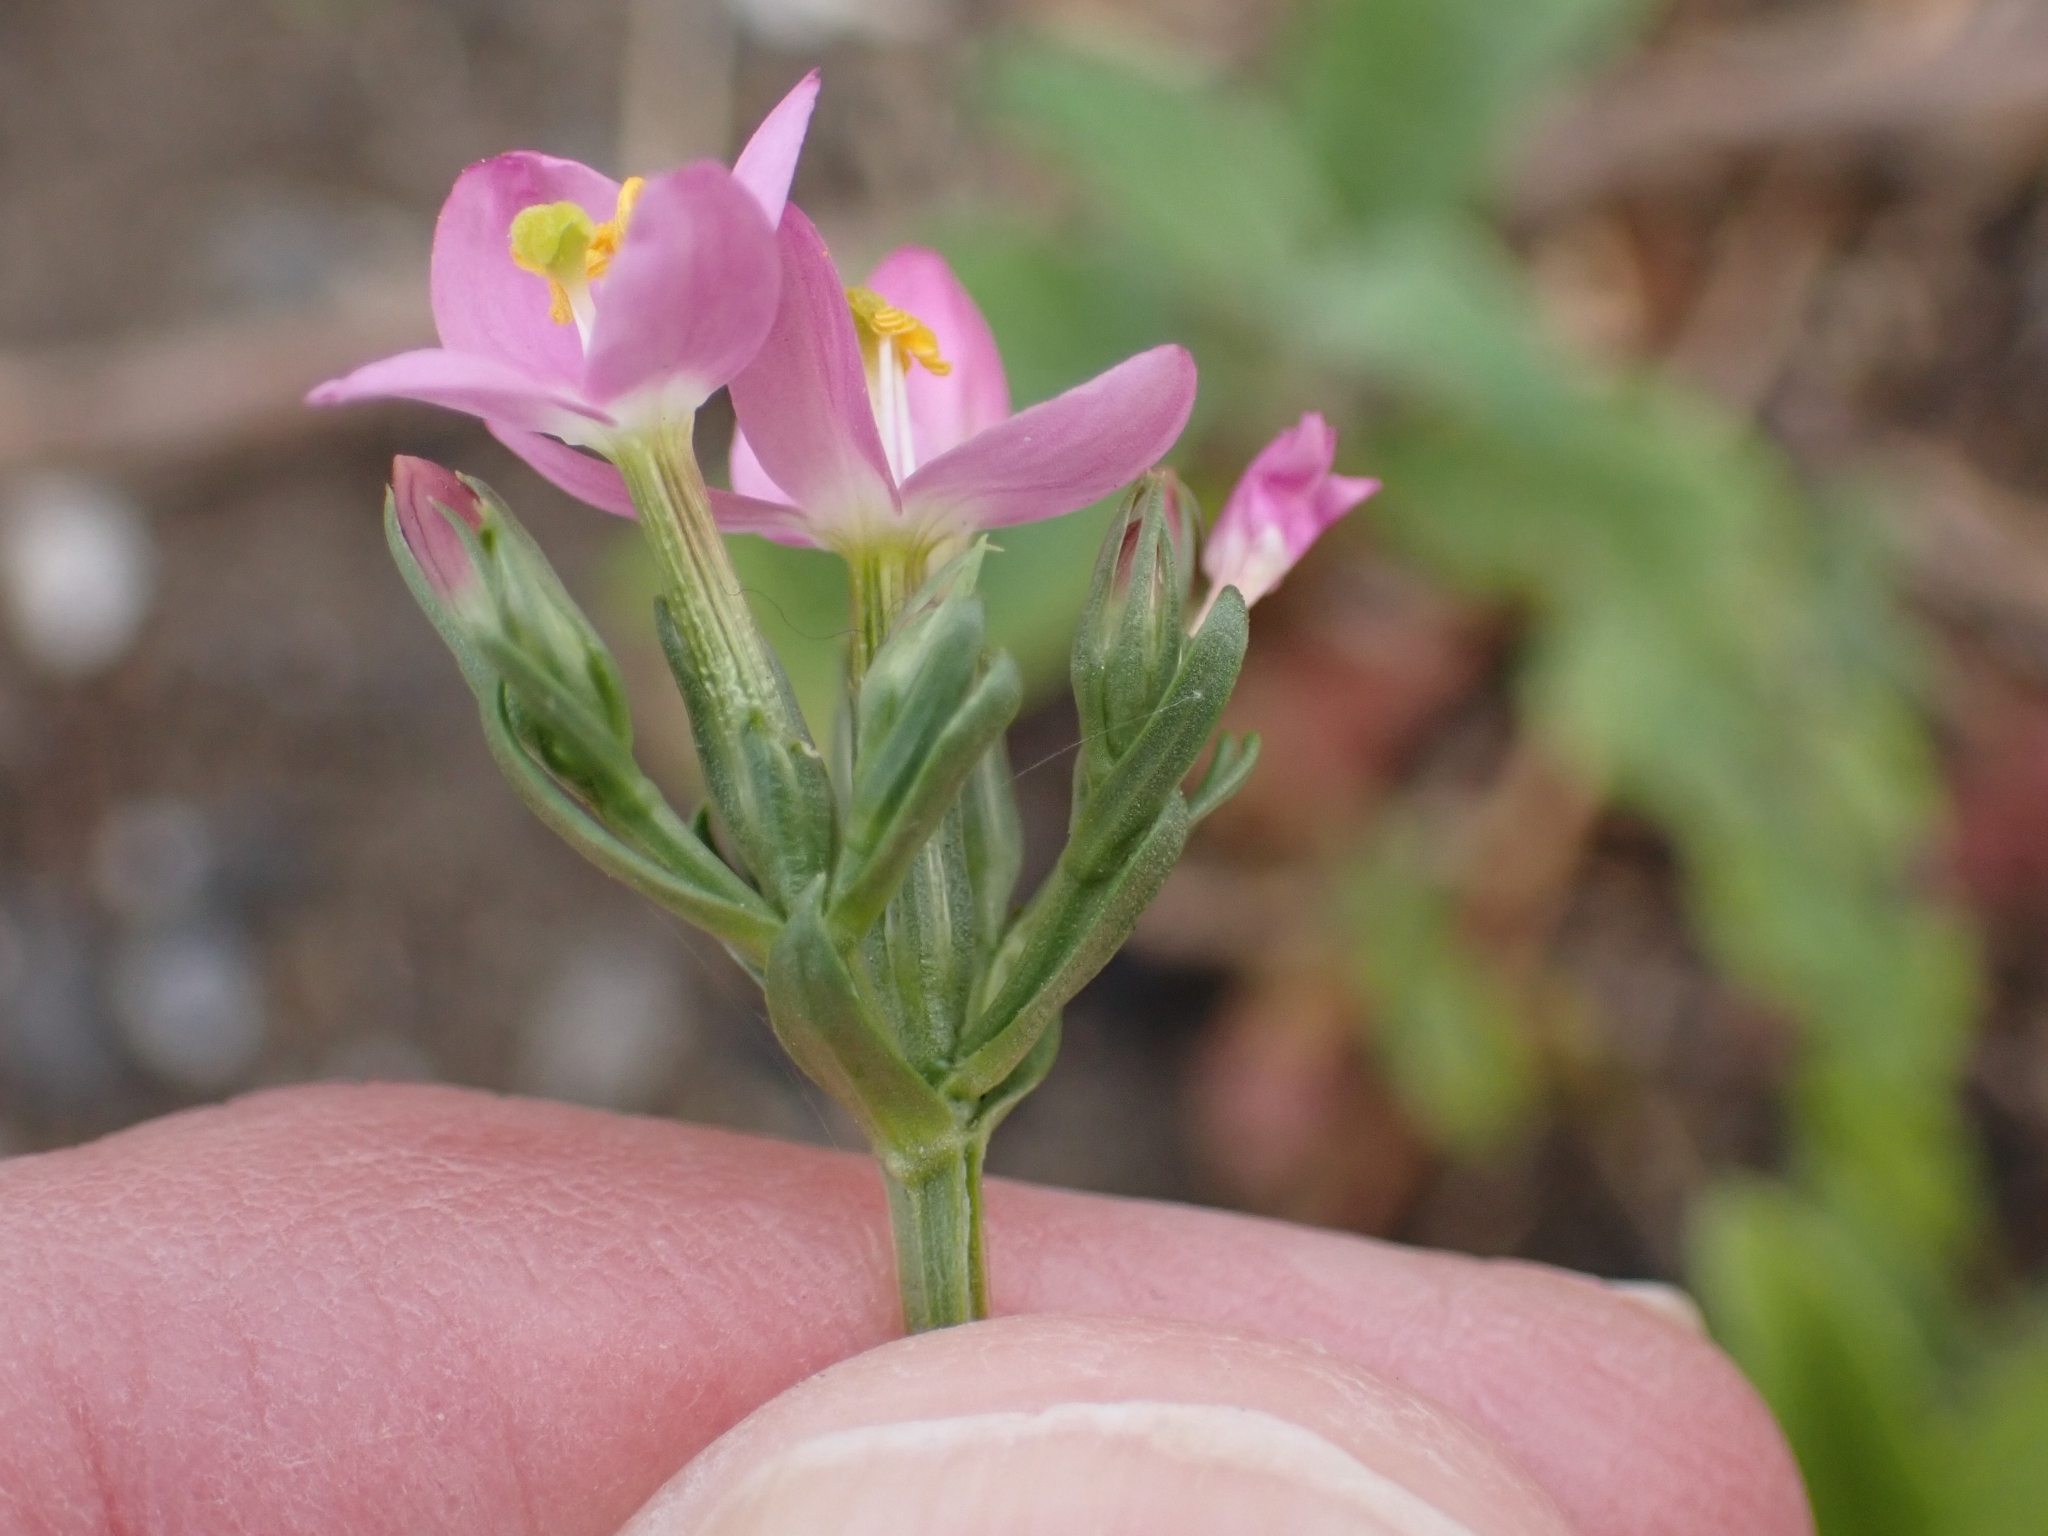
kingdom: Plantae
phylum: Tracheophyta
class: Magnoliopsida
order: Gentianales
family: Gentianaceae
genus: Centaurium
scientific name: Centaurium erythraea
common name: Common centaury
